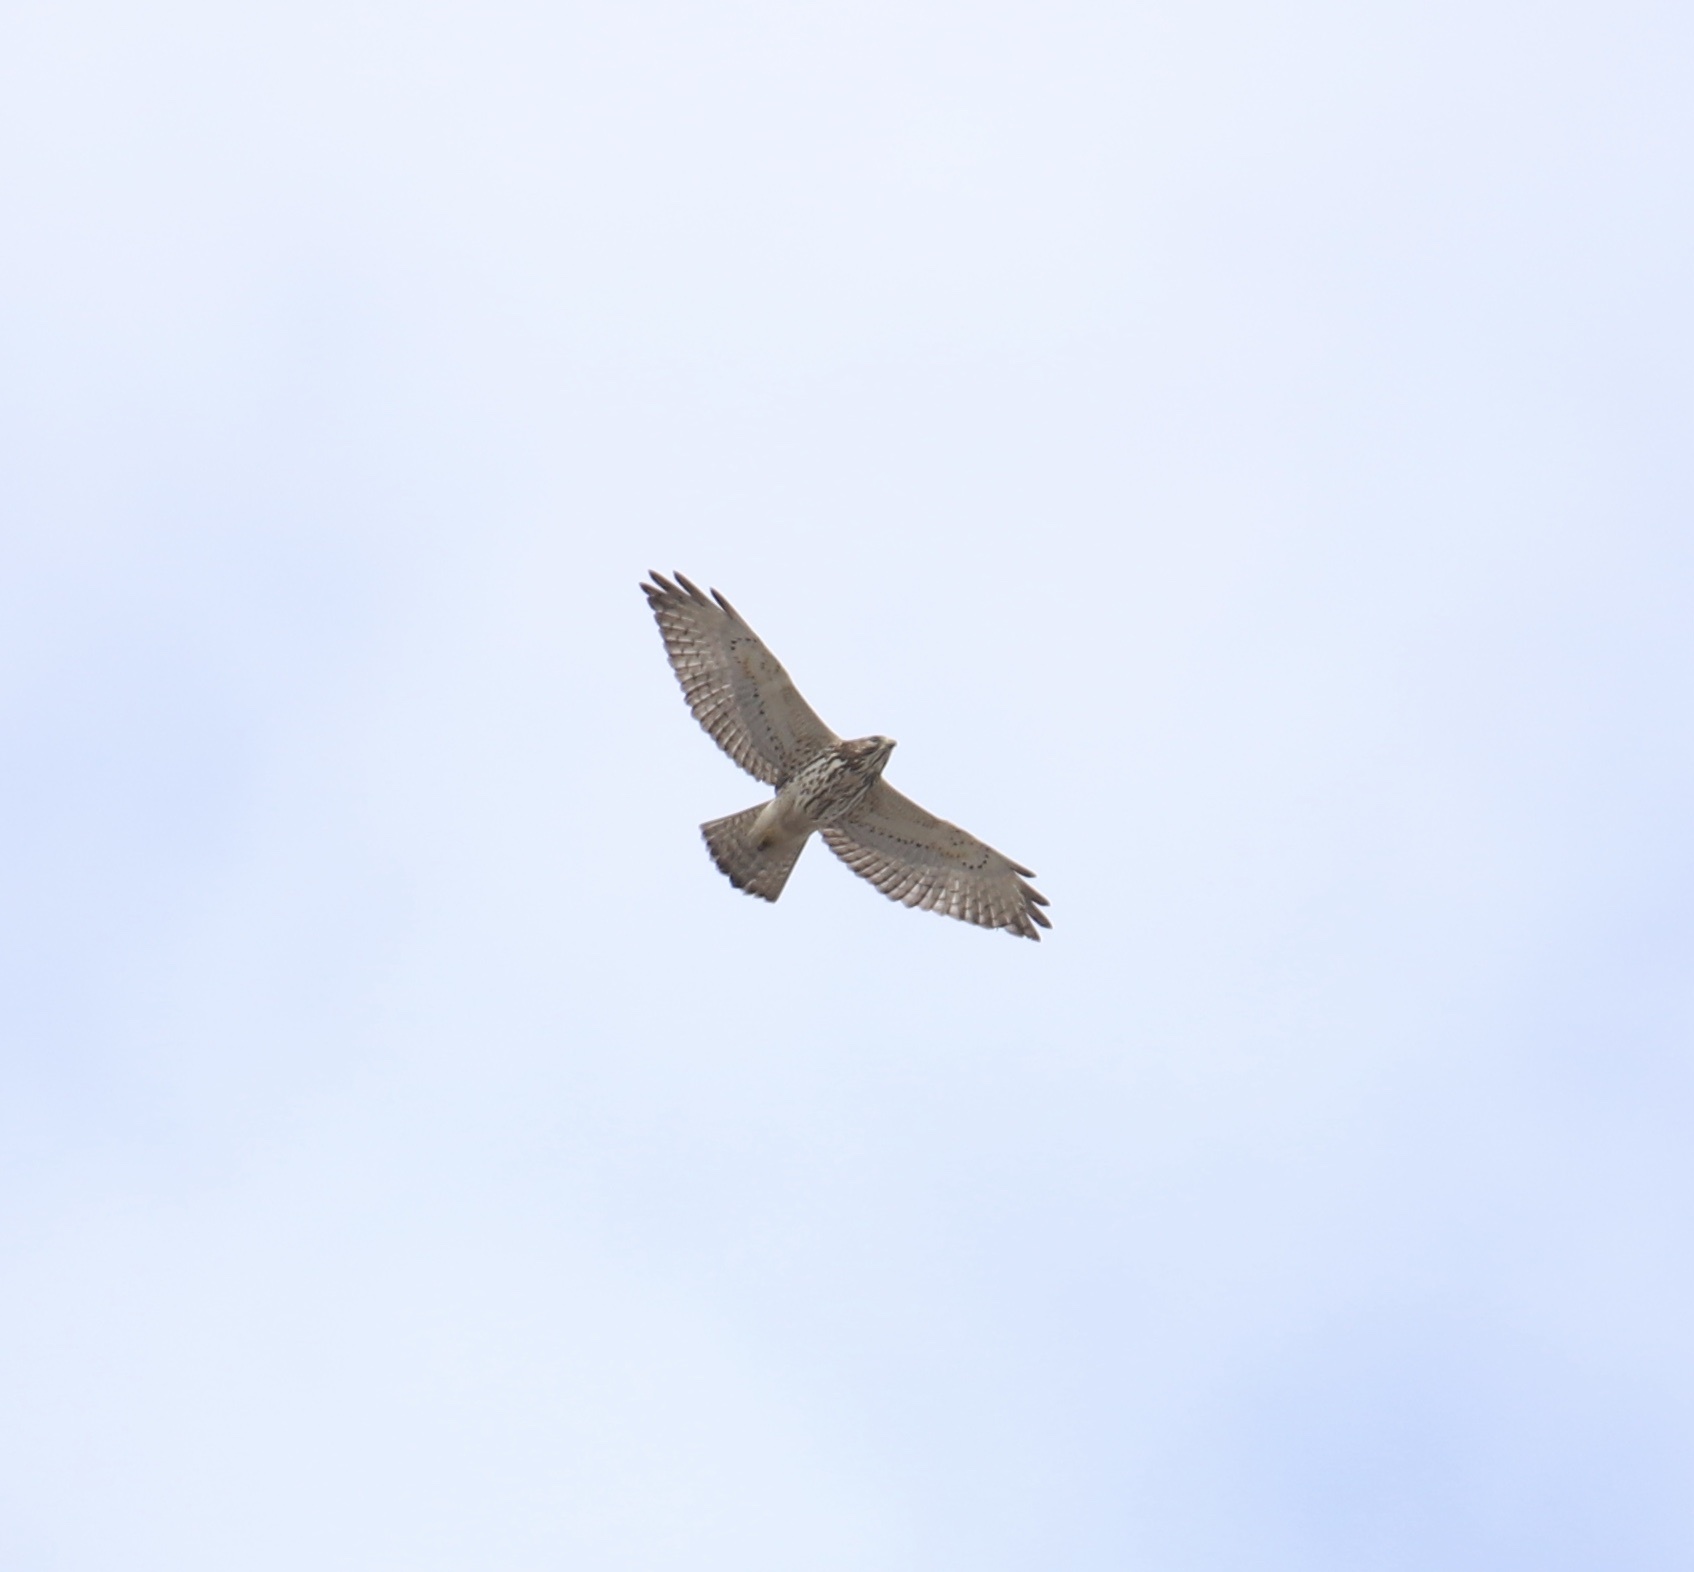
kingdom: Animalia
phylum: Chordata
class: Aves
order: Accipitriformes
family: Accipitridae
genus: Buteo
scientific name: Buteo platypterus
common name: Broad-winged hawk
